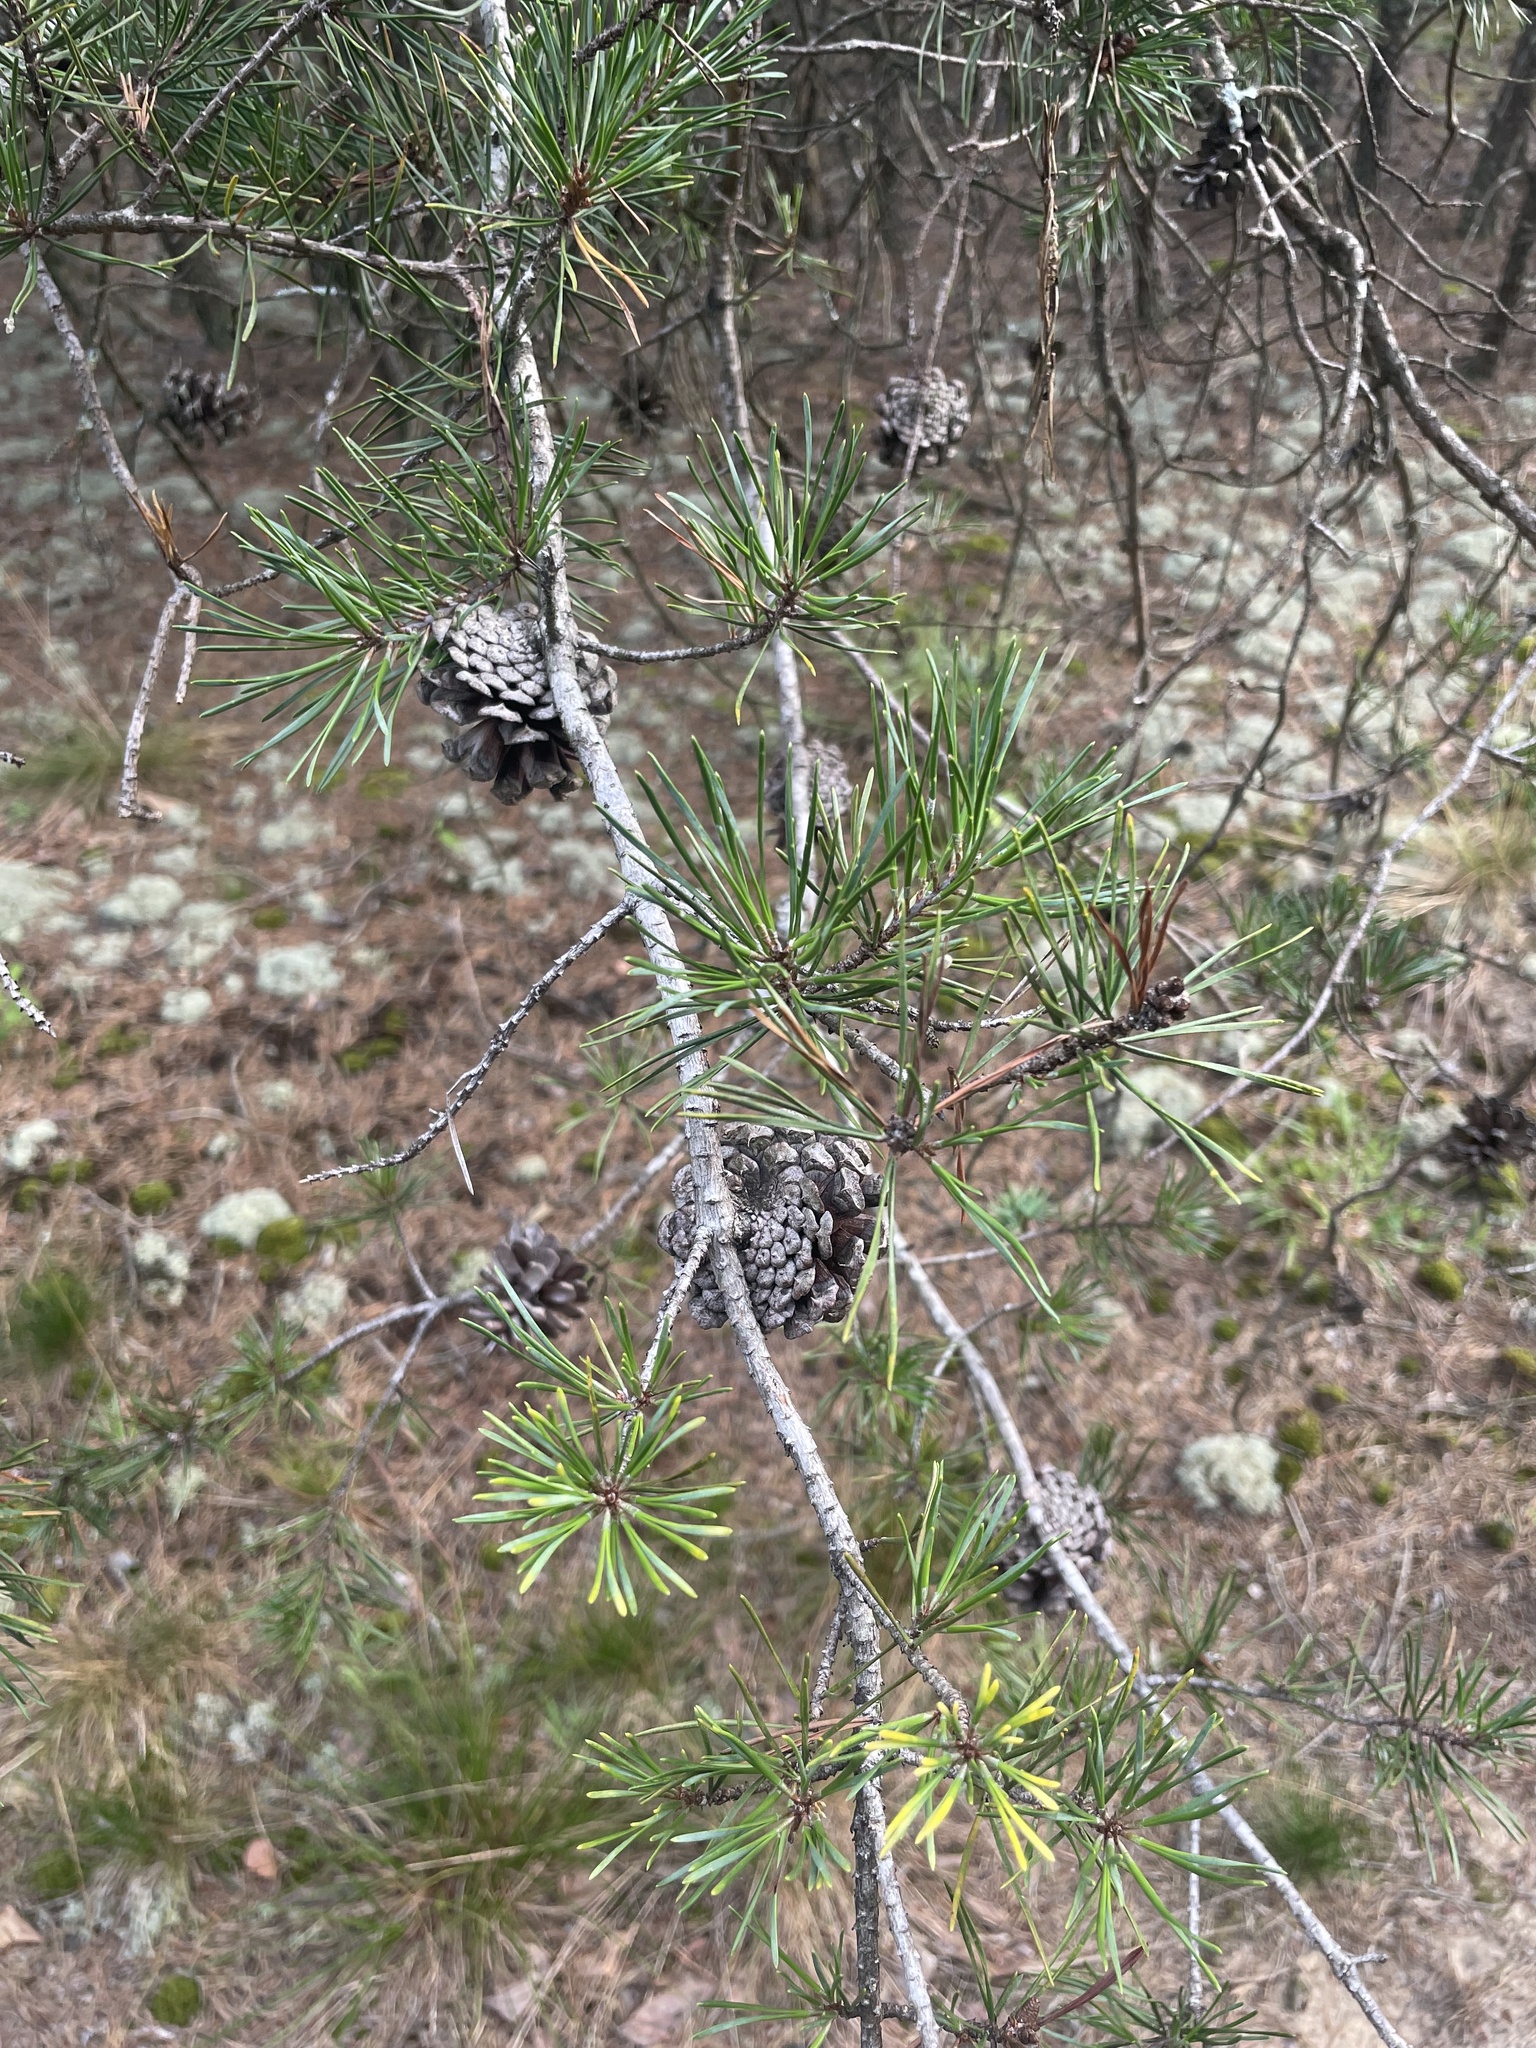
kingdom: Plantae
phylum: Tracheophyta
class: Pinopsida
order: Pinales
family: Pinaceae
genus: Pinus
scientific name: Pinus virginiana
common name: Scrub pine
